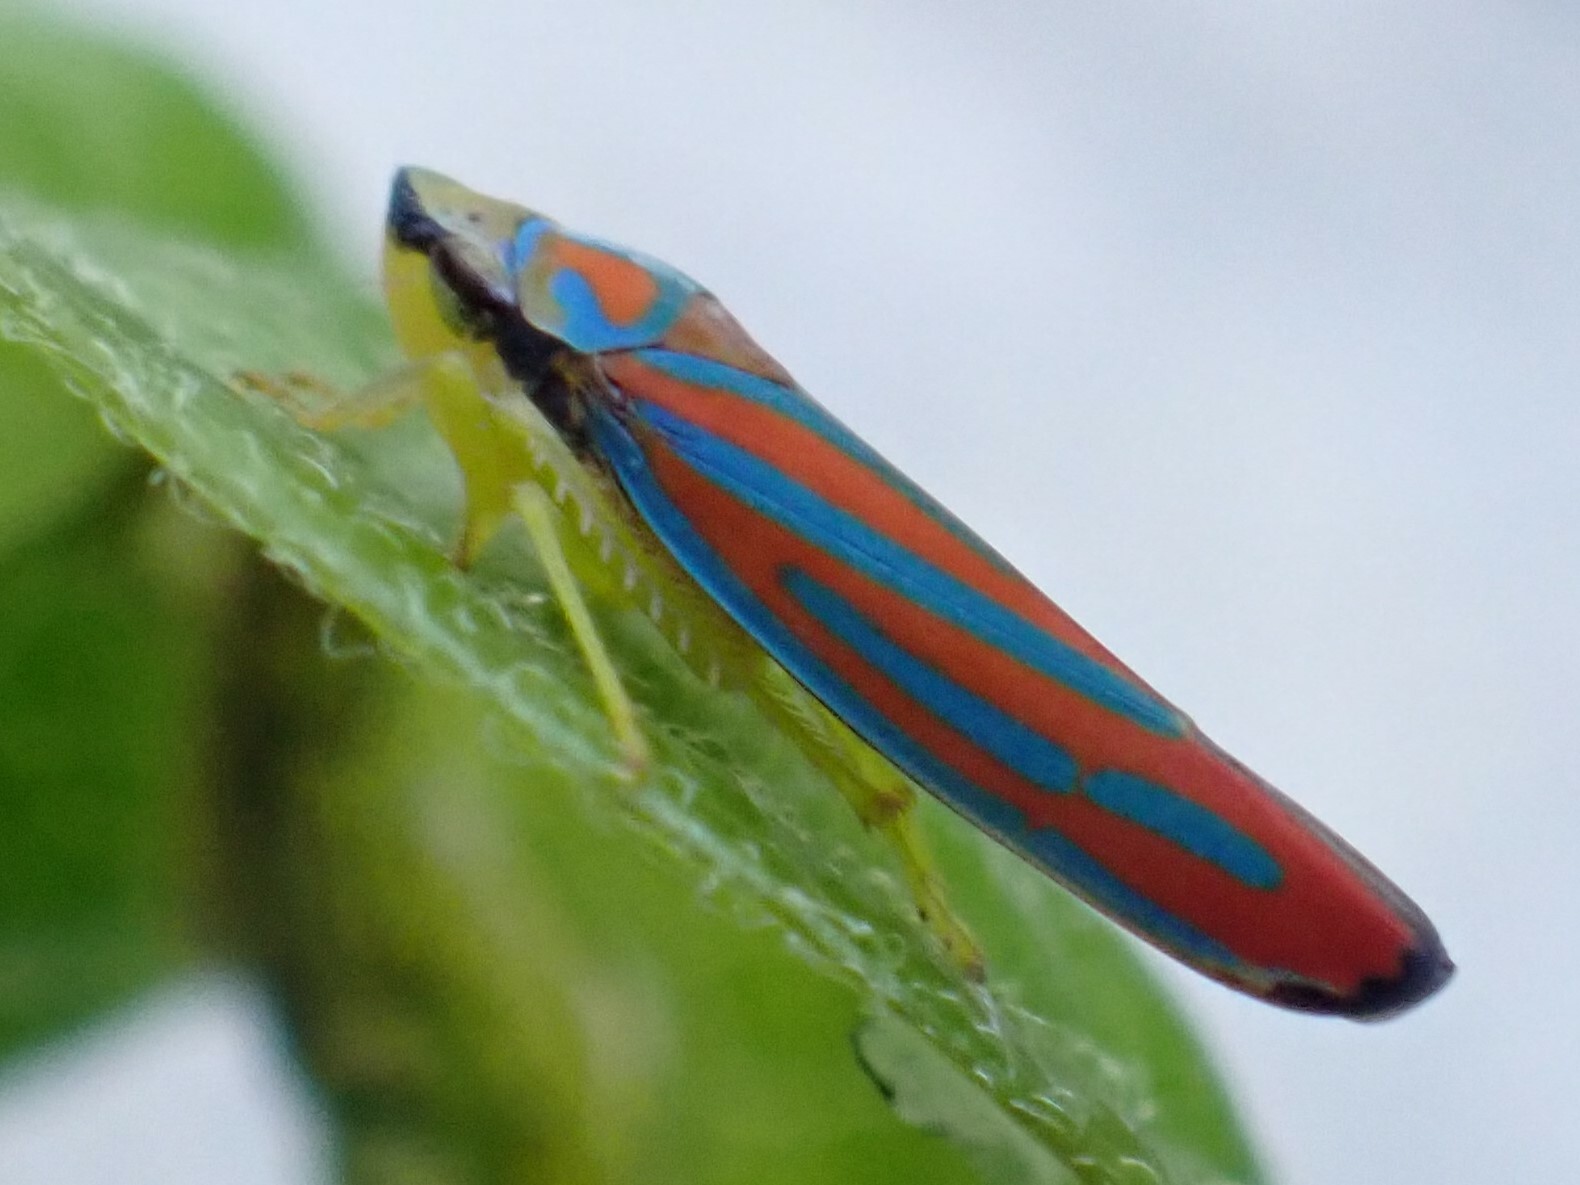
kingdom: Animalia
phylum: Arthropoda
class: Insecta
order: Hemiptera
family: Cicadellidae
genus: Graphocephala
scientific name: Graphocephala coccinea
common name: Candy-striped leafhopper
